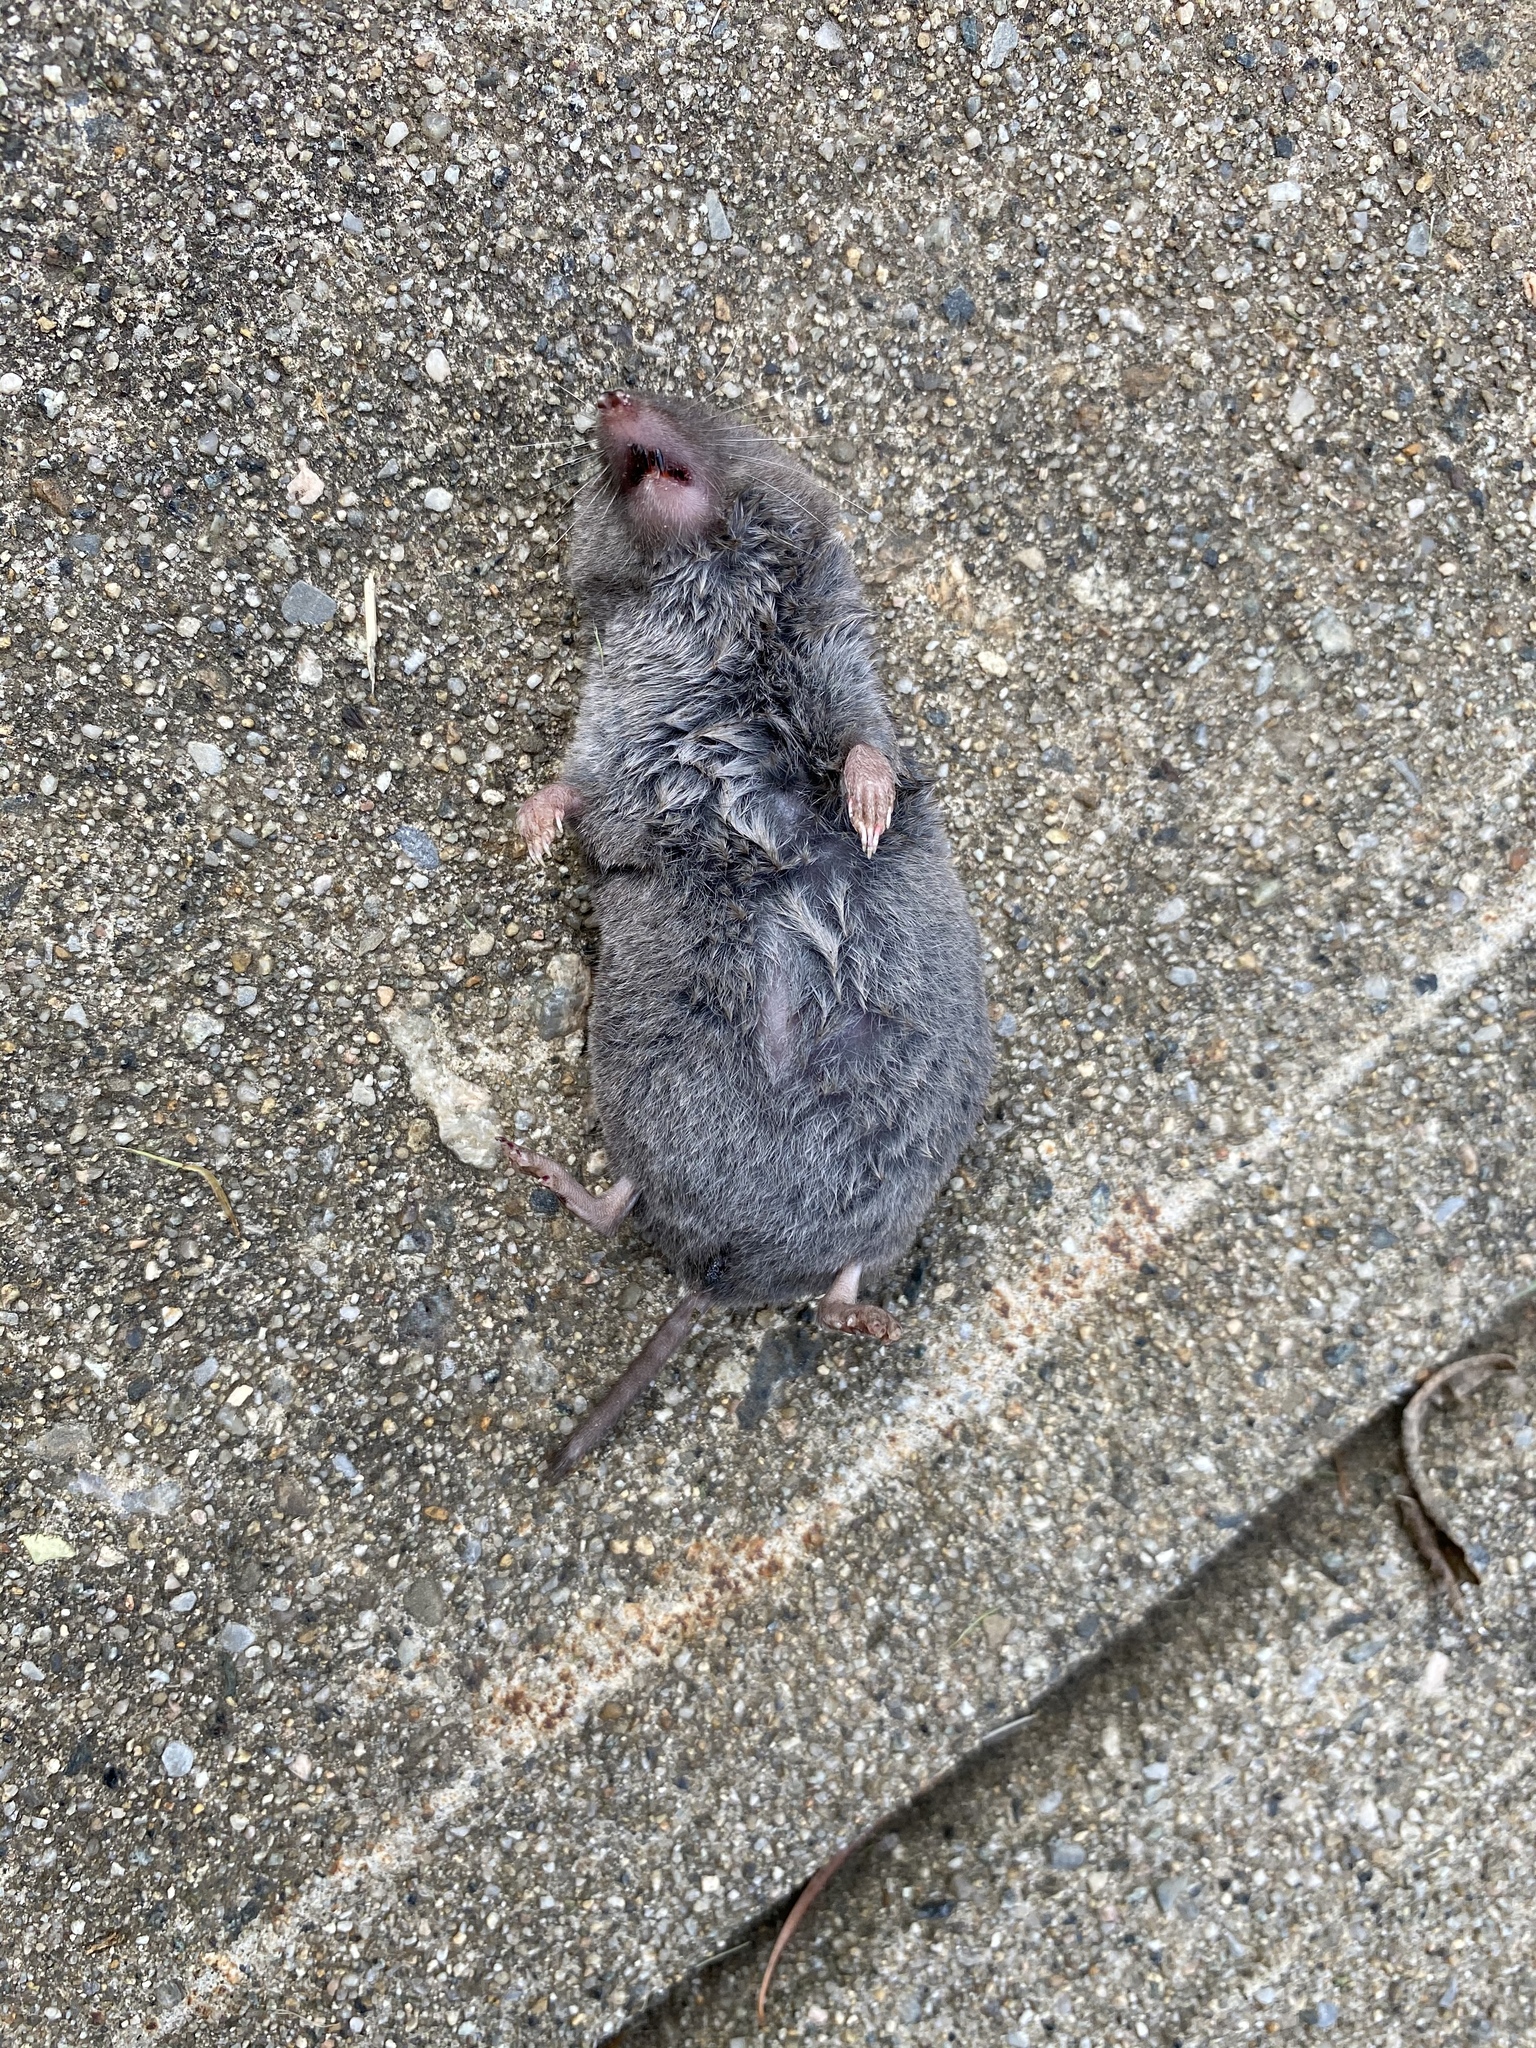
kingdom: Animalia
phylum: Chordata
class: Mammalia
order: Soricomorpha
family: Soricidae
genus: Blarina
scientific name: Blarina brevicauda
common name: Northern short-tailed shrew
